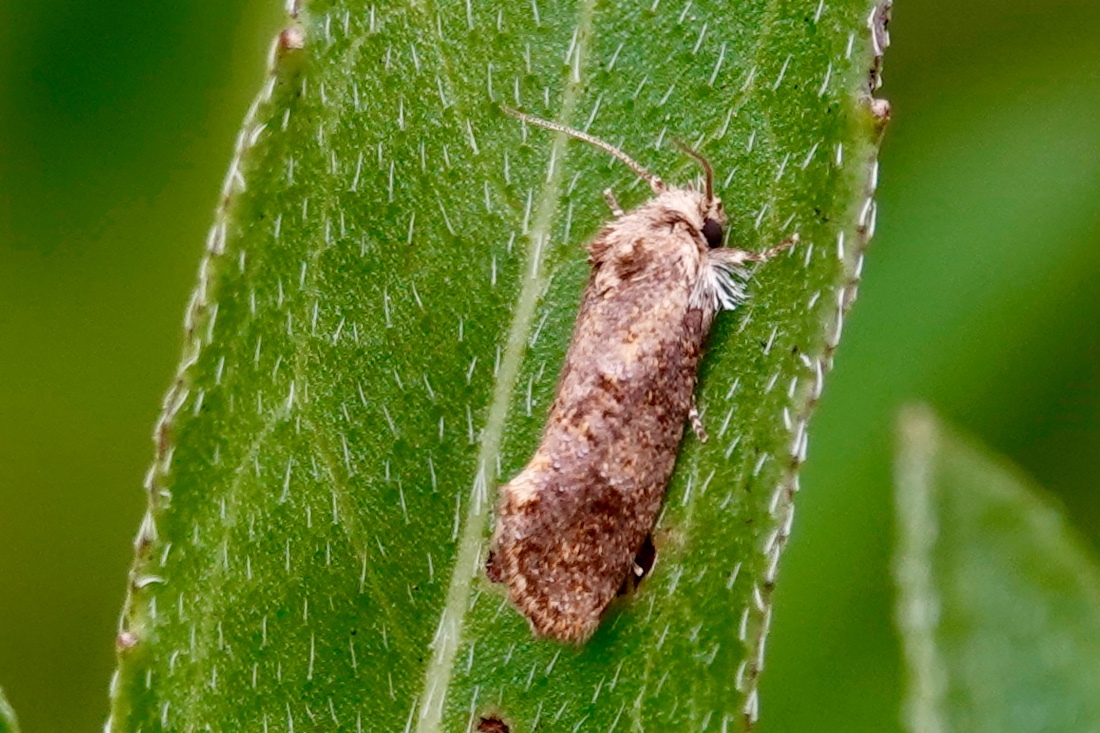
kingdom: Animalia
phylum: Arthropoda
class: Insecta
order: Lepidoptera
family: Tineidae
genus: Acrolophus
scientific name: Acrolophus panamae
